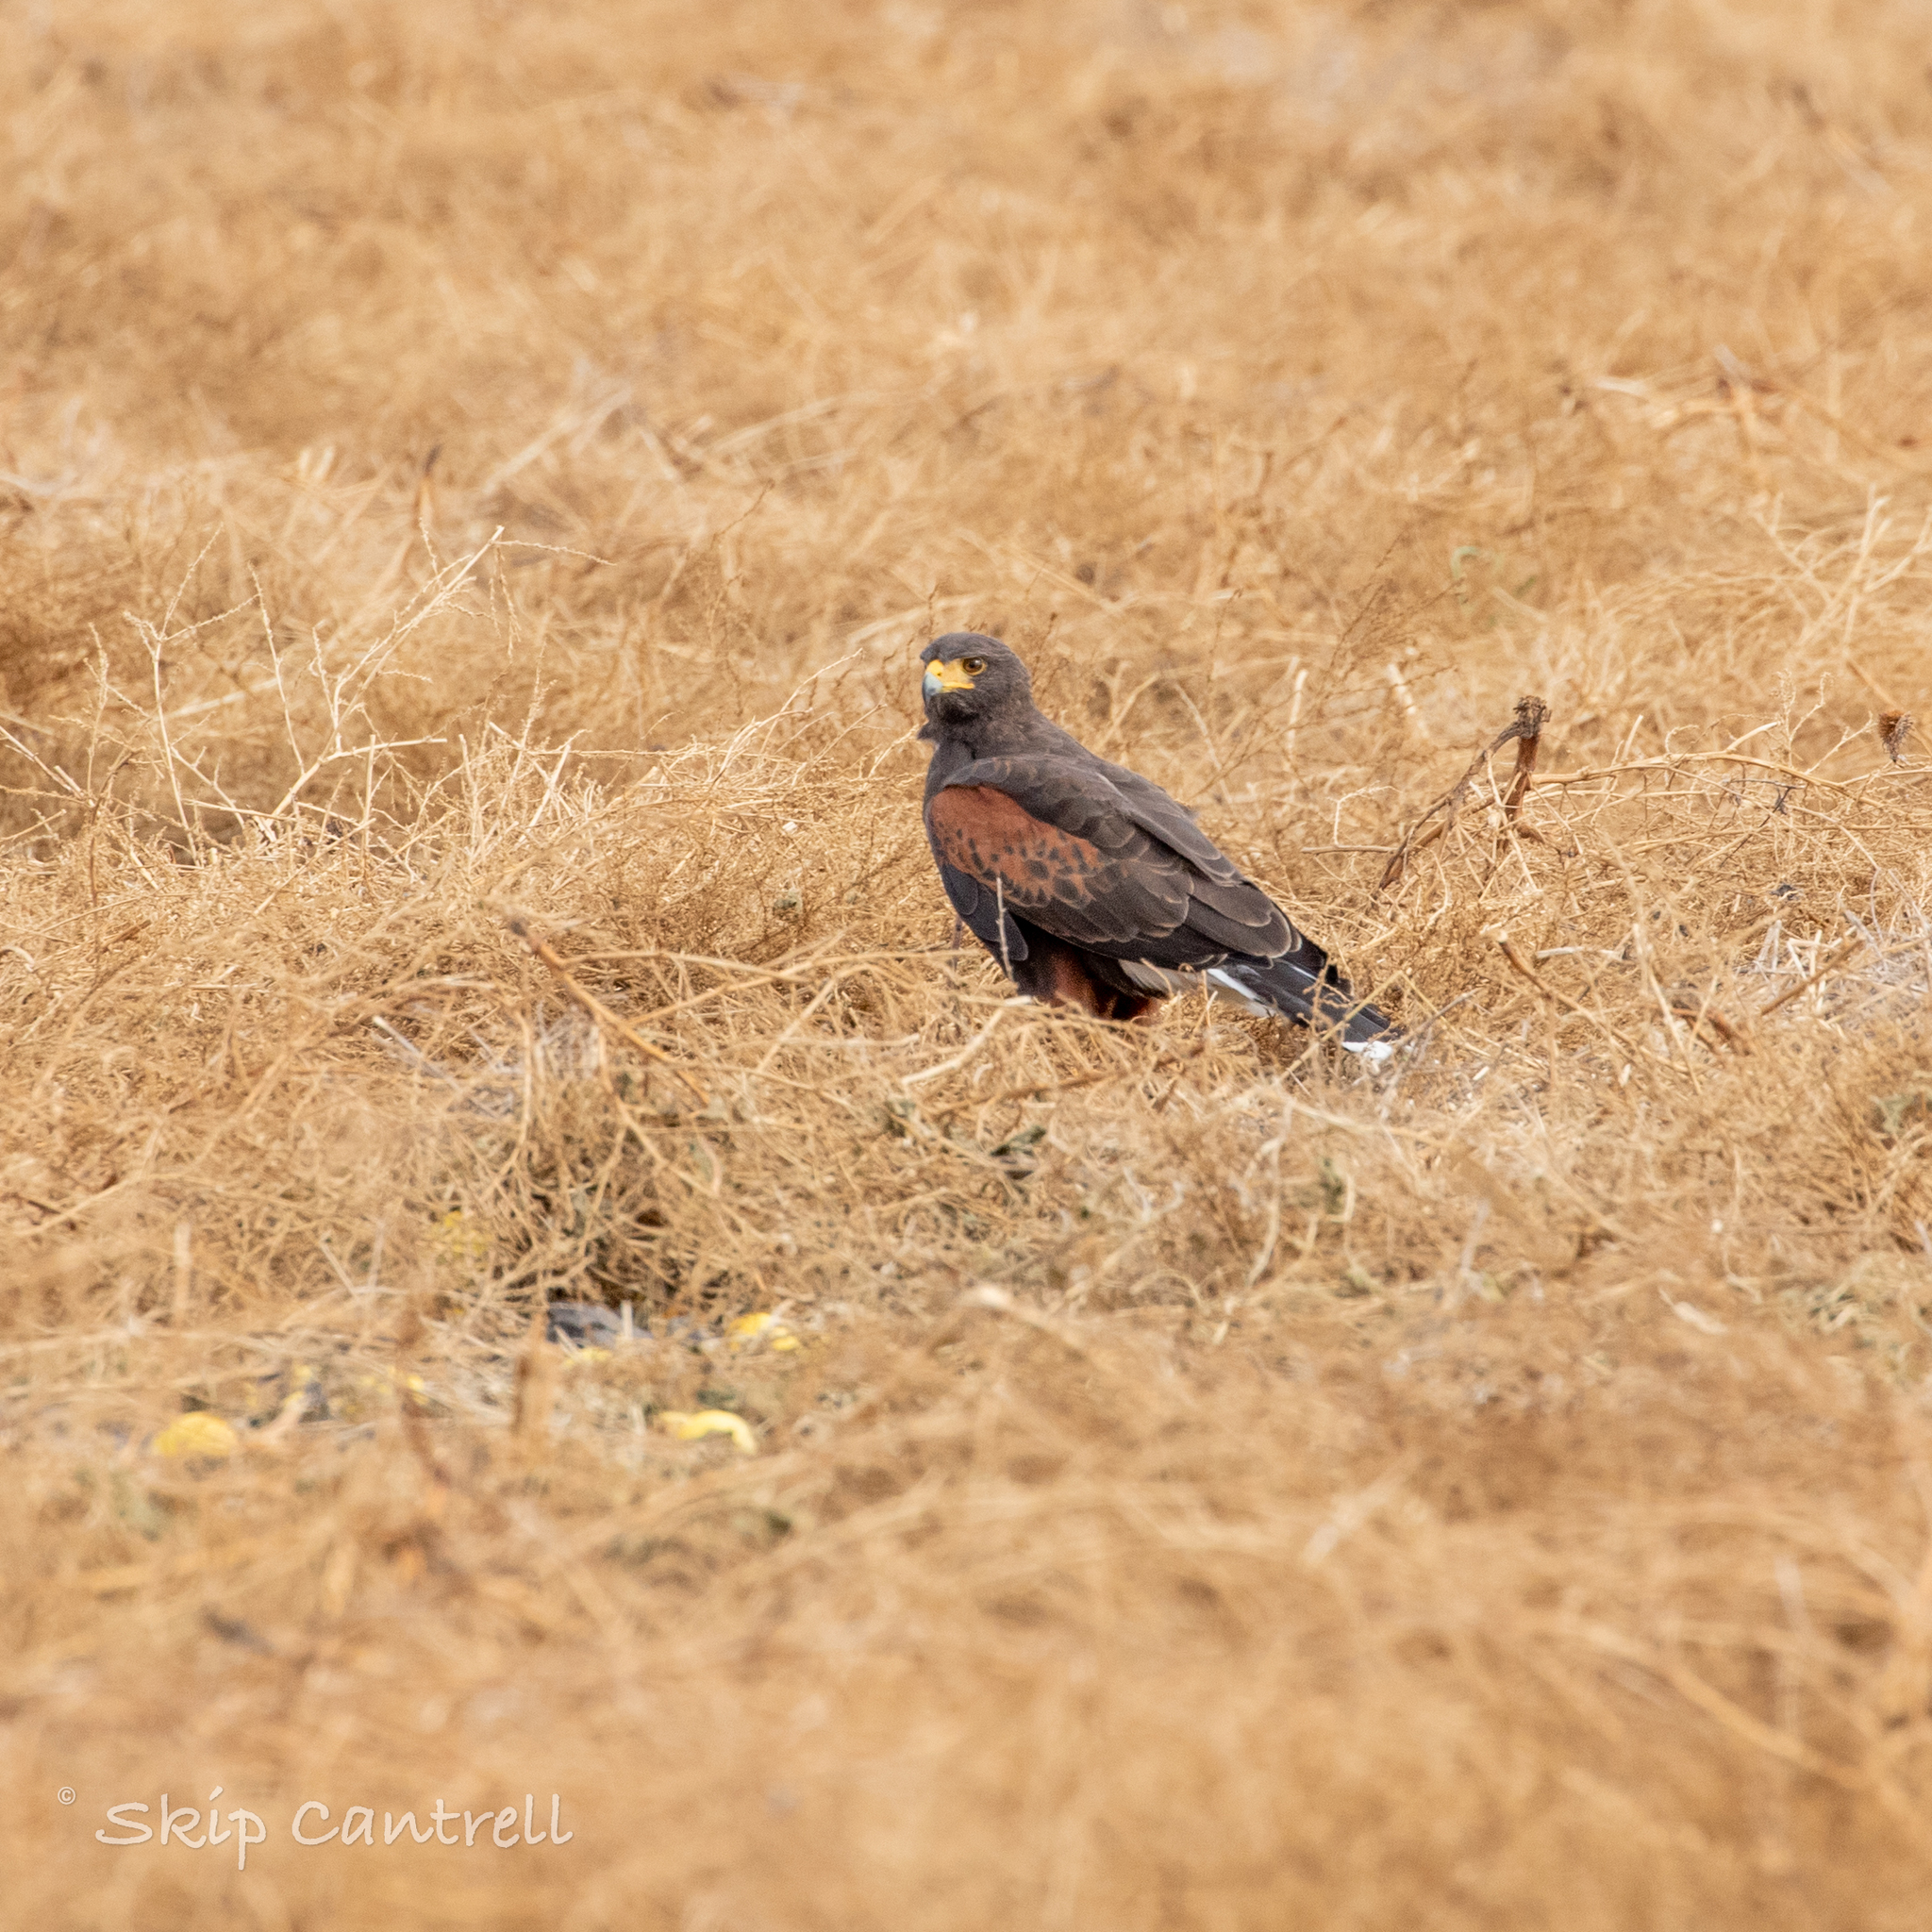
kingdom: Animalia
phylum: Chordata
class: Aves
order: Accipitriformes
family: Accipitridae
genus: Parabuteo
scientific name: Parabuteo unicinctus
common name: Harris's hawk
